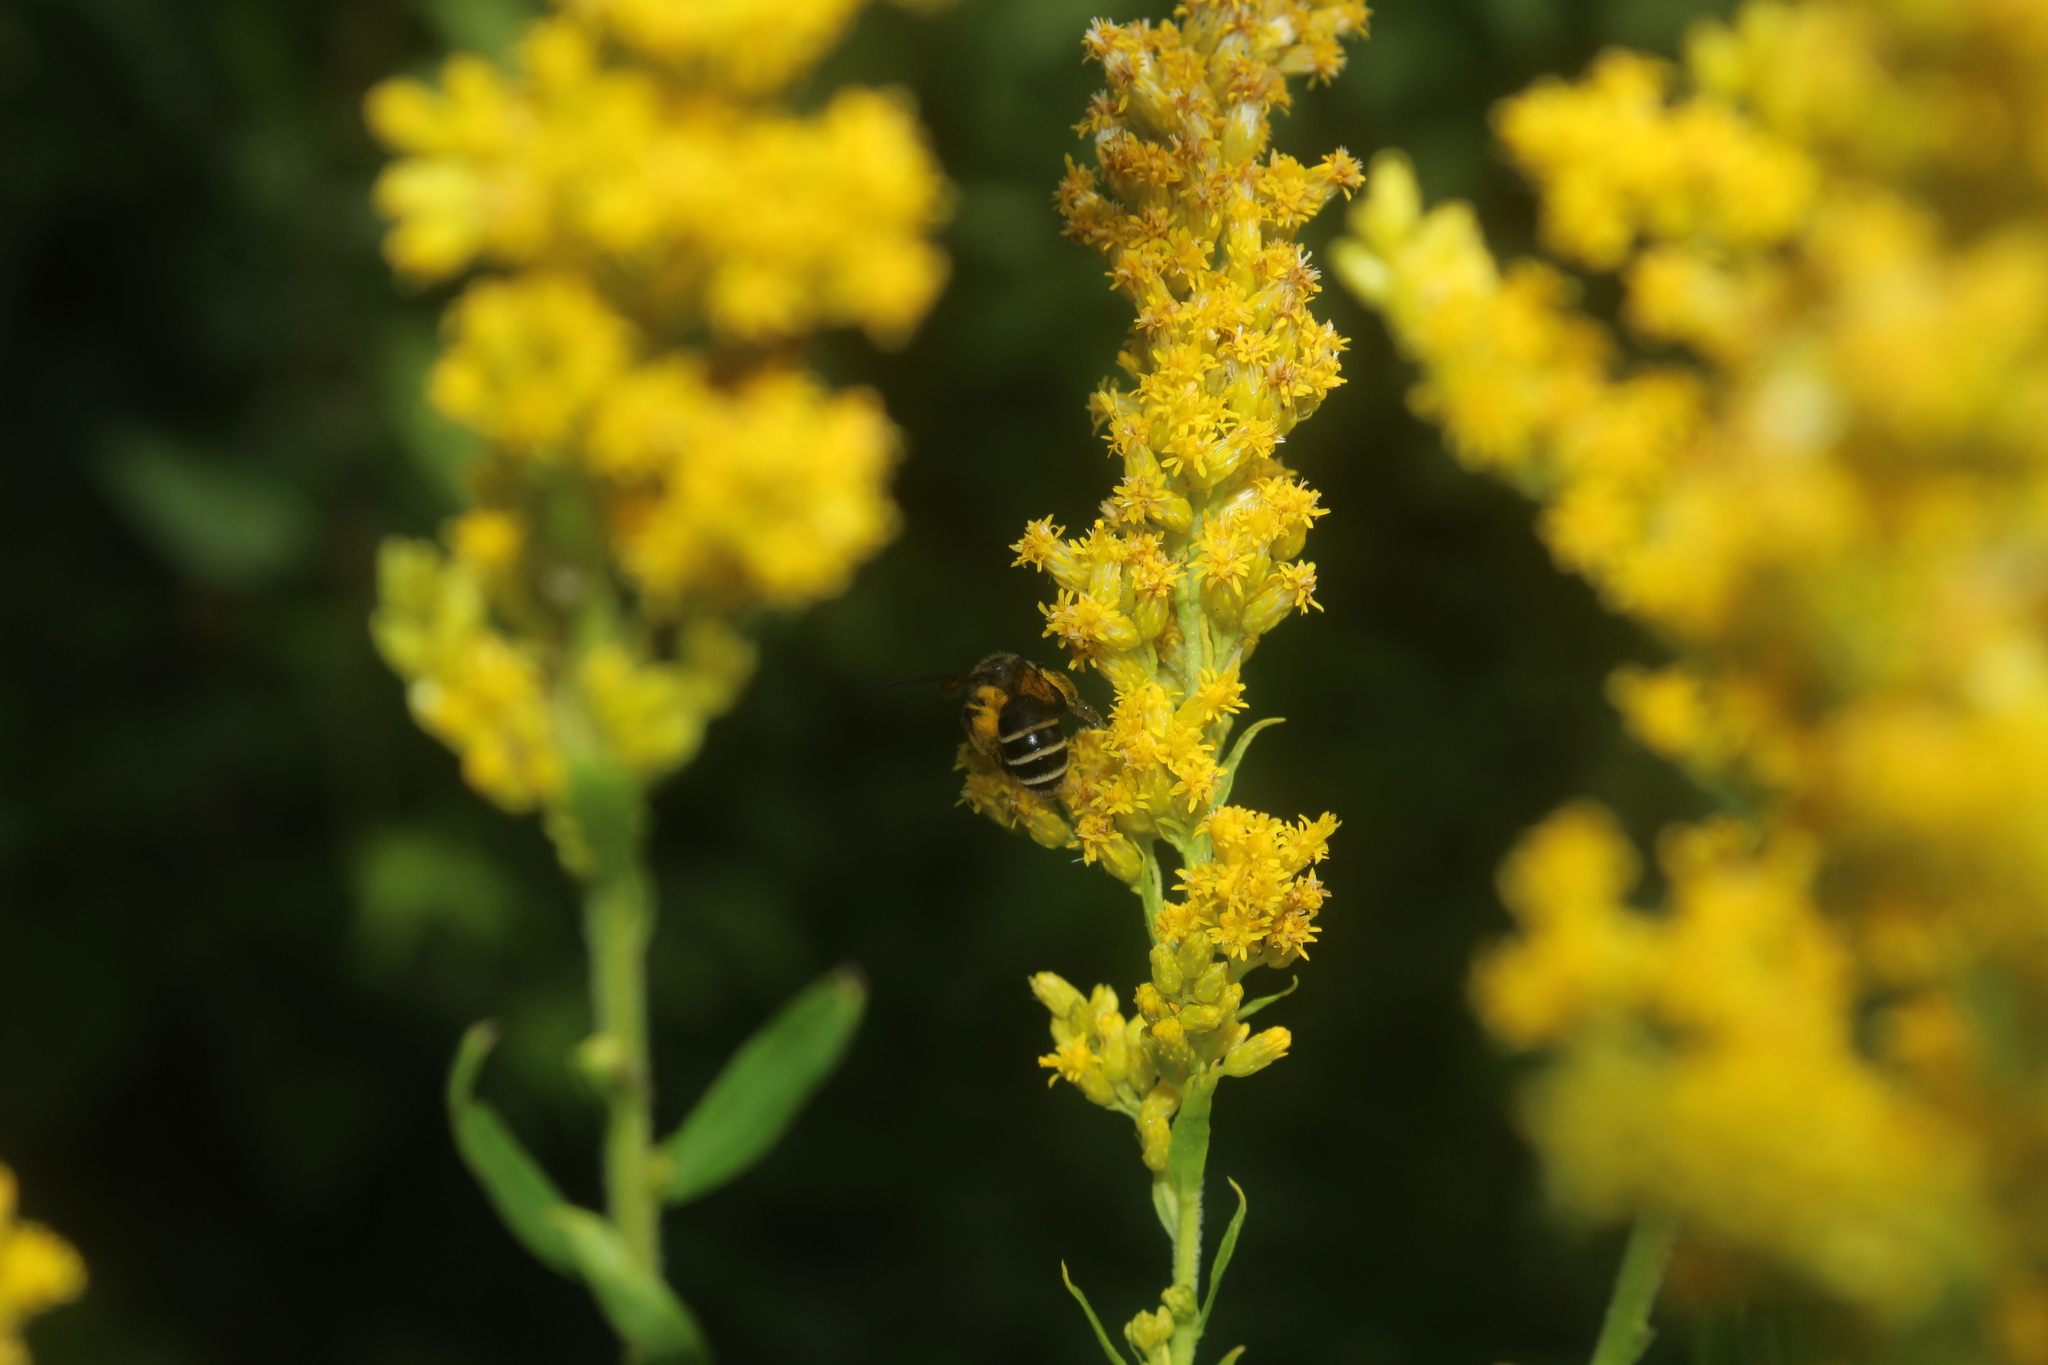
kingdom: Animalia
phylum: Arthropoda
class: Insecta
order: Hymenoptera
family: Andrenidae
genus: Andrena
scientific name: Andrena nubecula
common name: Cloudy-winged mining bee
